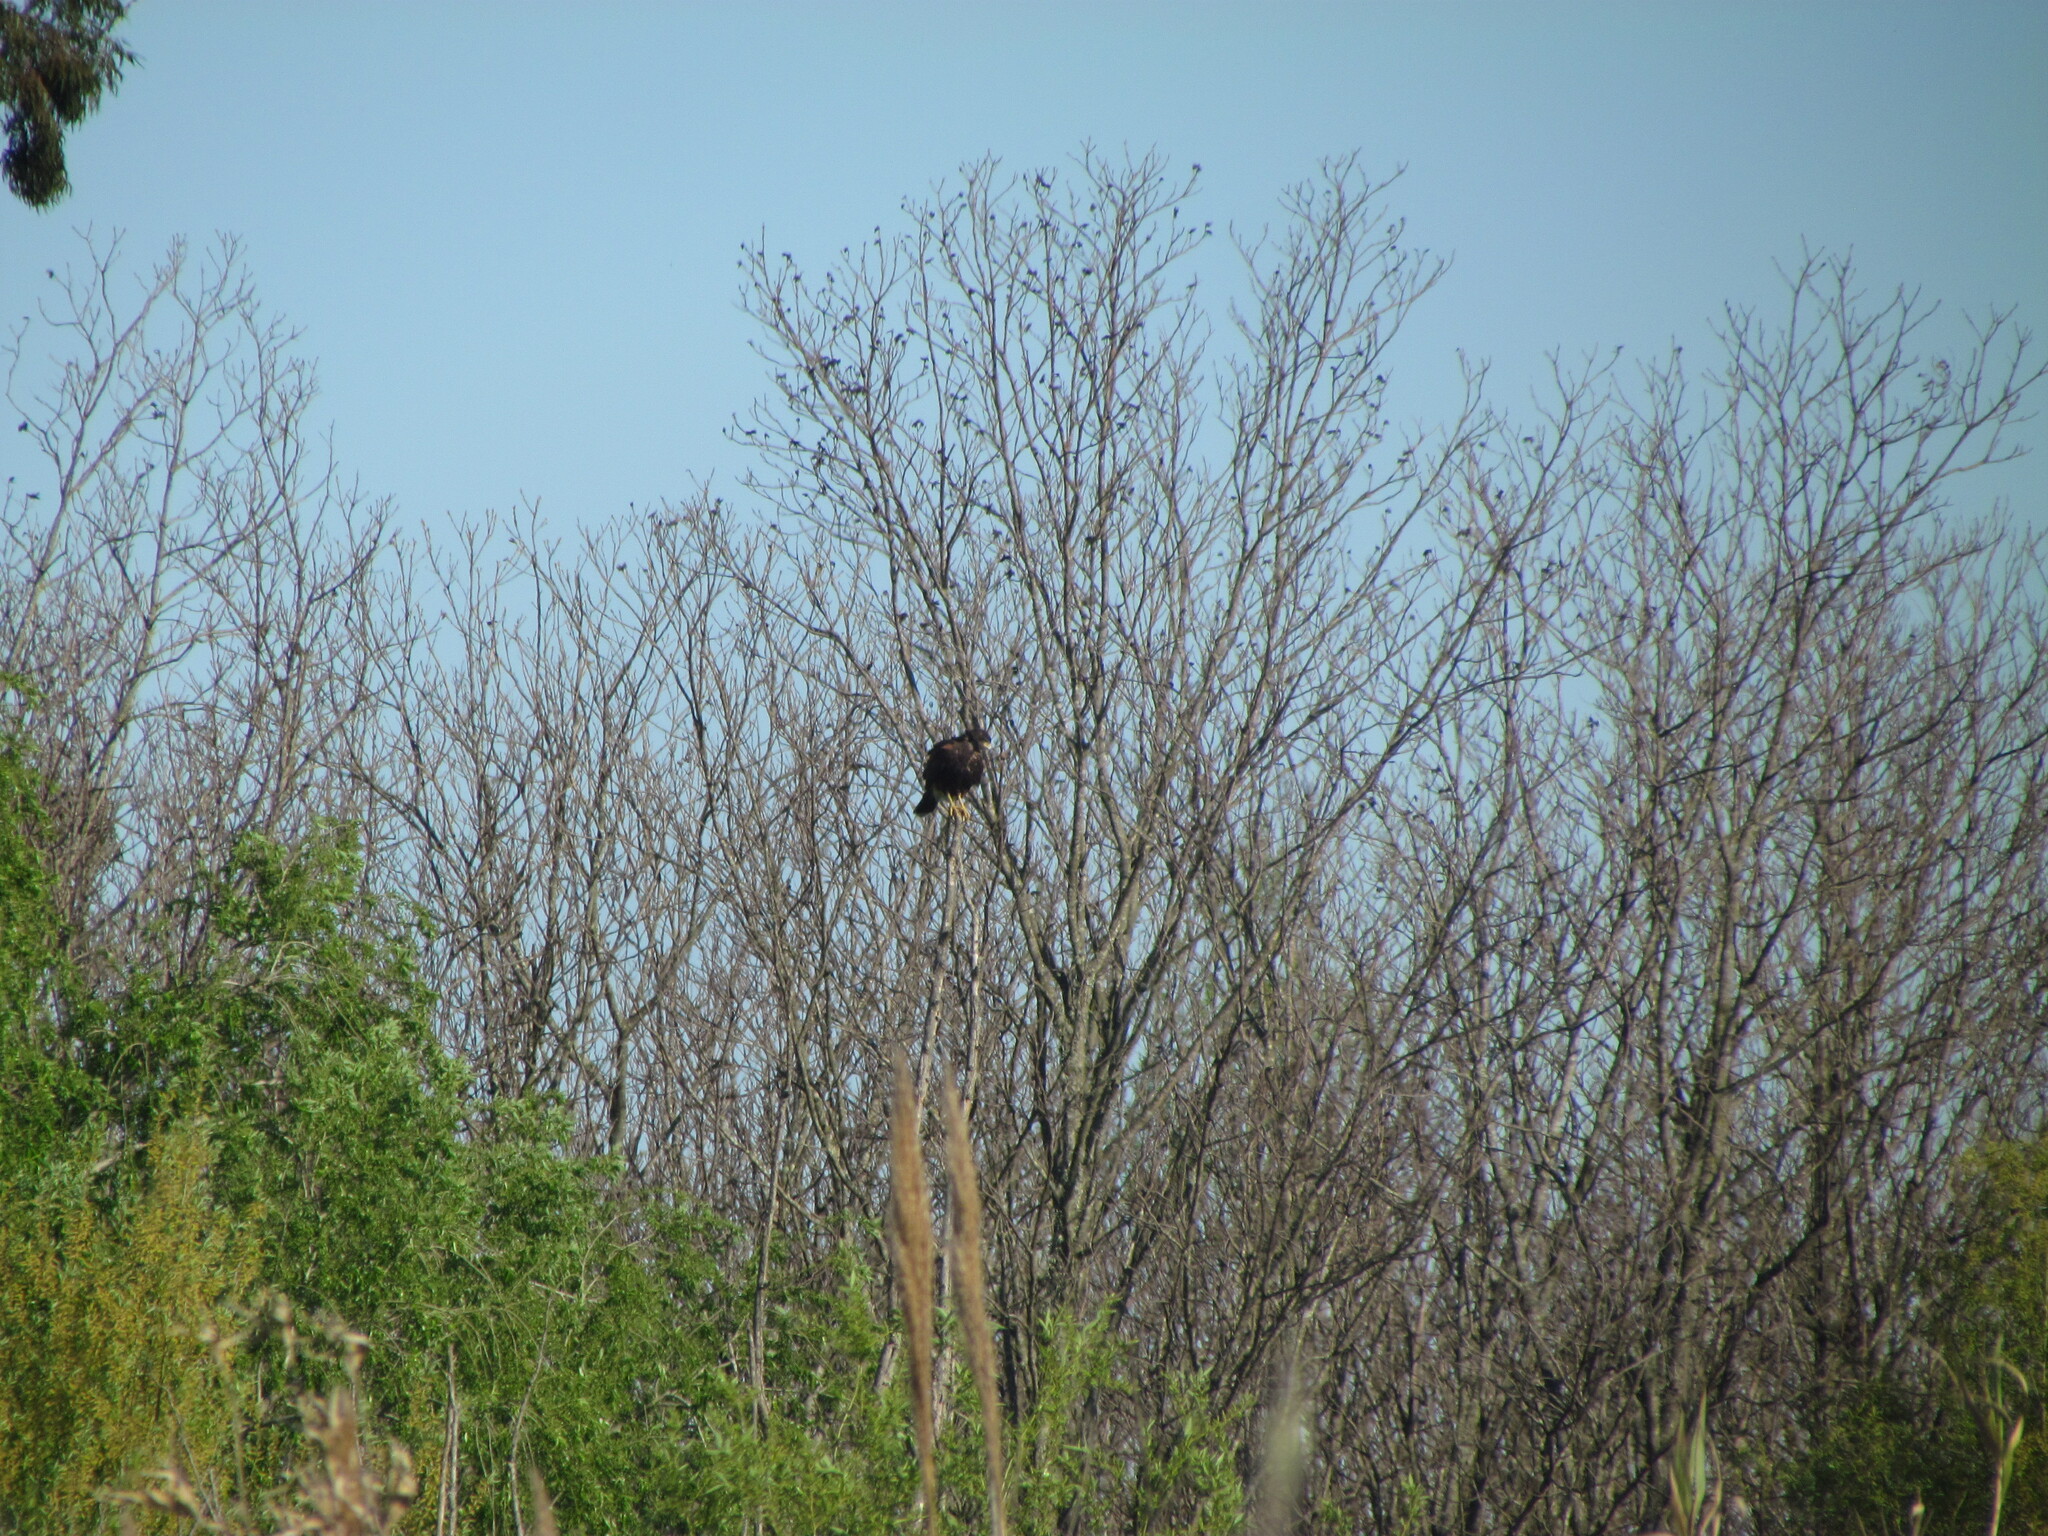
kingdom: Animalia
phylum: Chordata
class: Aves
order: Accipitriformes
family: Accipitridae
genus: Parabuteo
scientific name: Parabuteo unicinctus
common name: Harris's hawk
